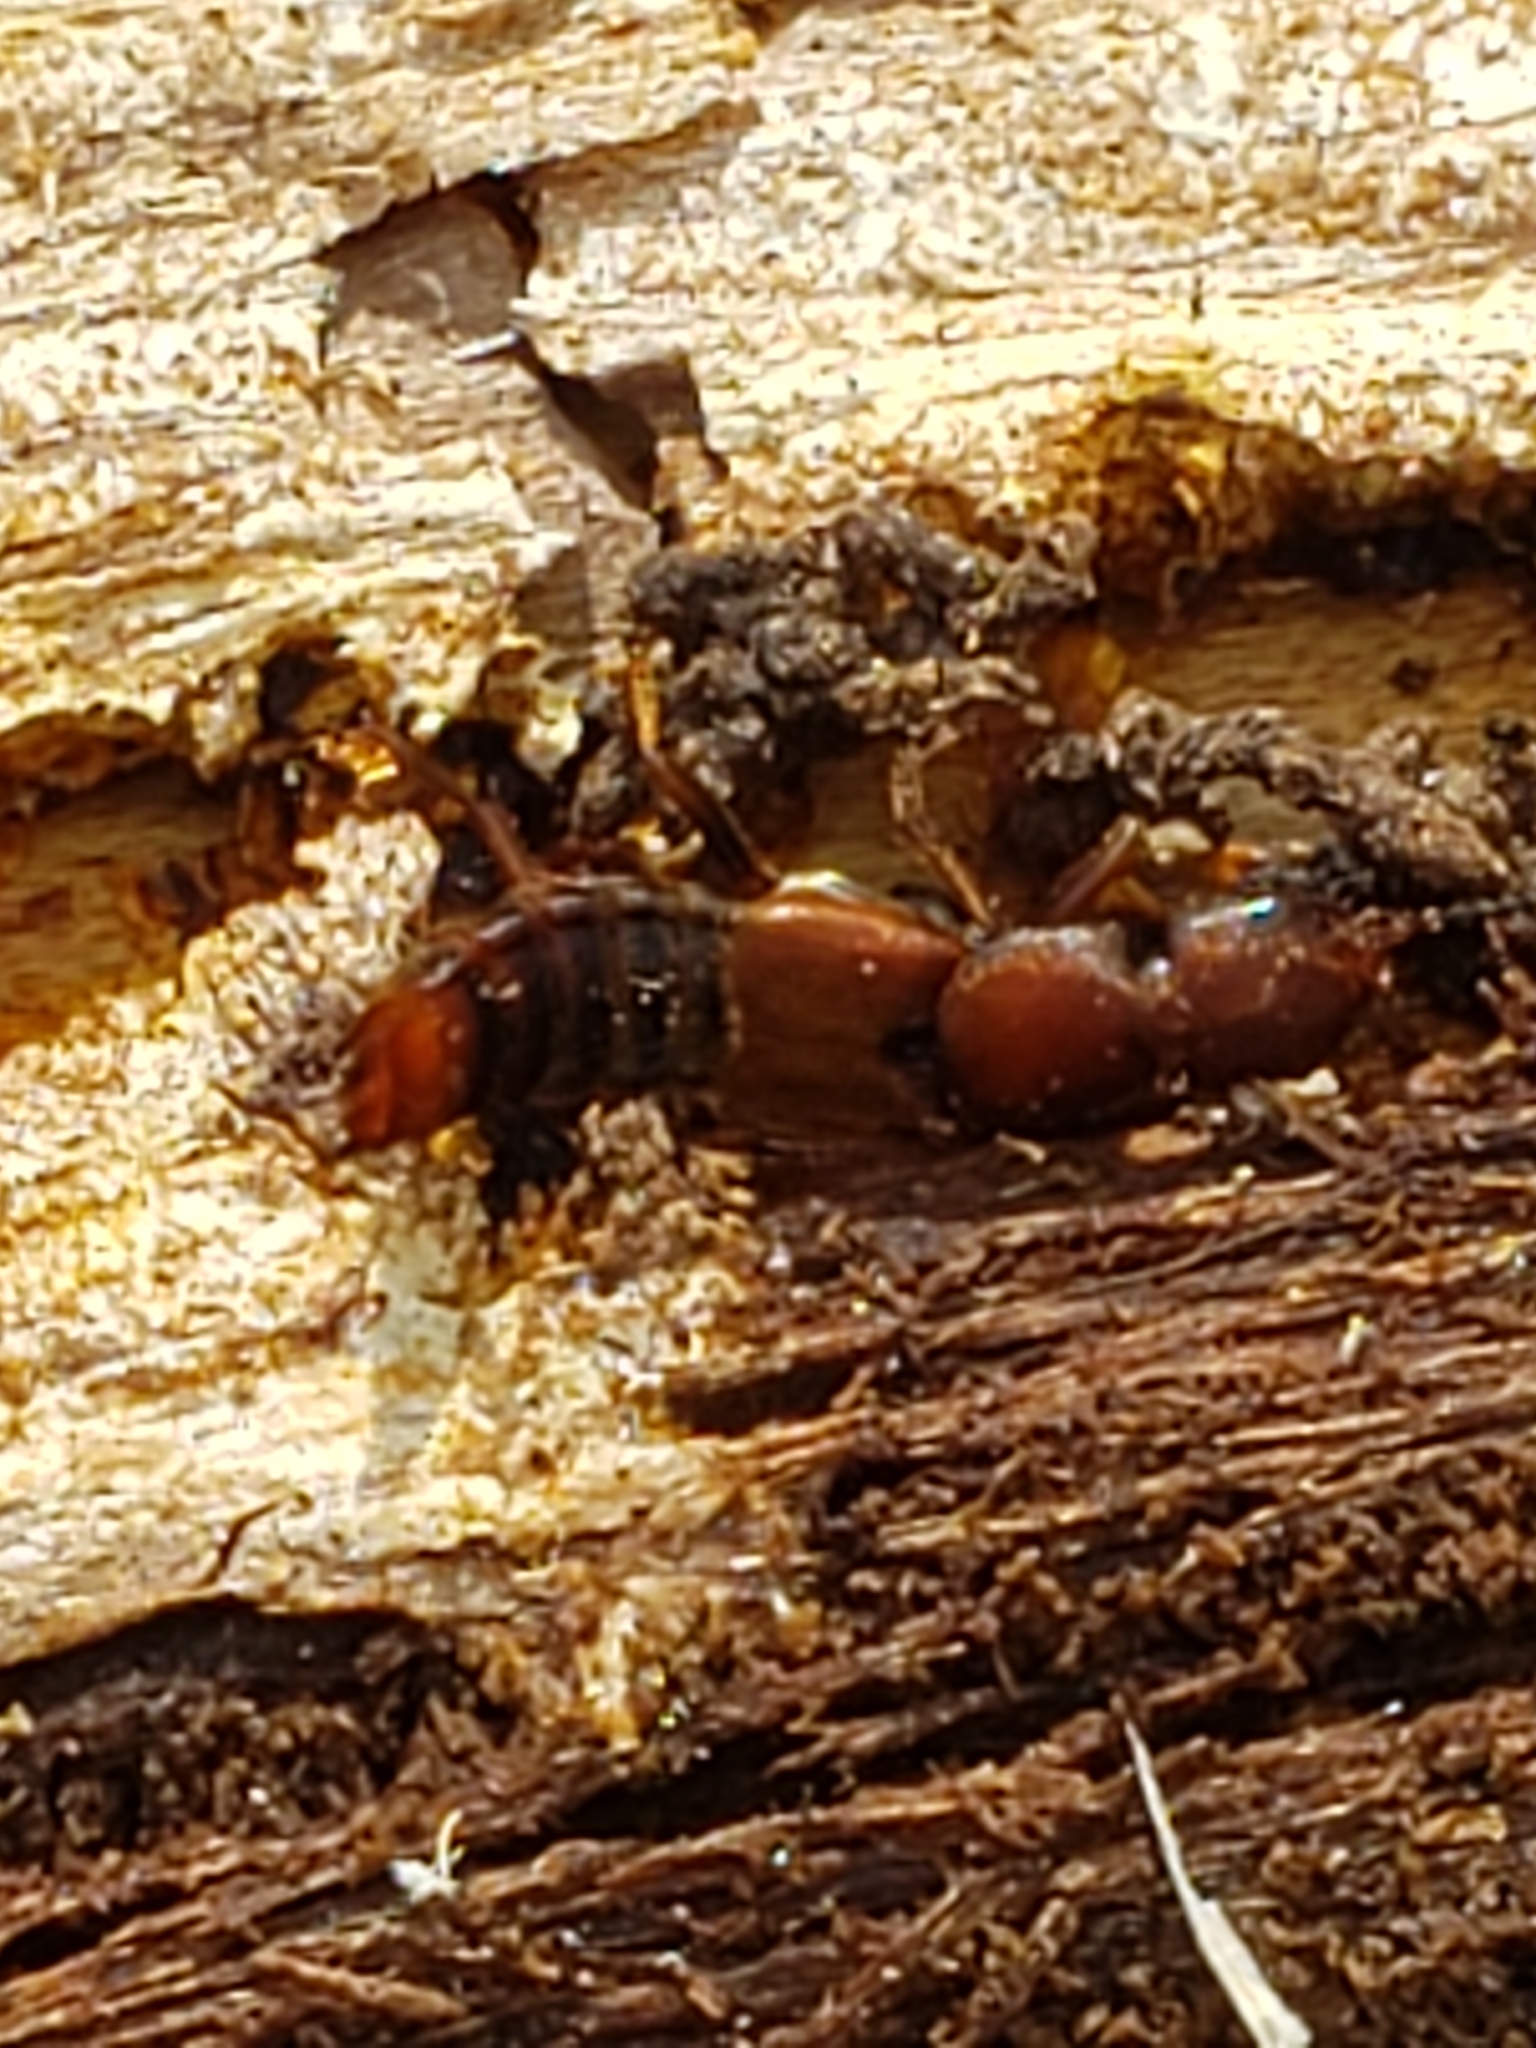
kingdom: Animalia
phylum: Arthropoda
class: Insecta
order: Coleoptera
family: Staphylinidae
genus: Platydracus
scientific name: Platydracus cinnamopterus
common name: Cinnamon rove beetle
